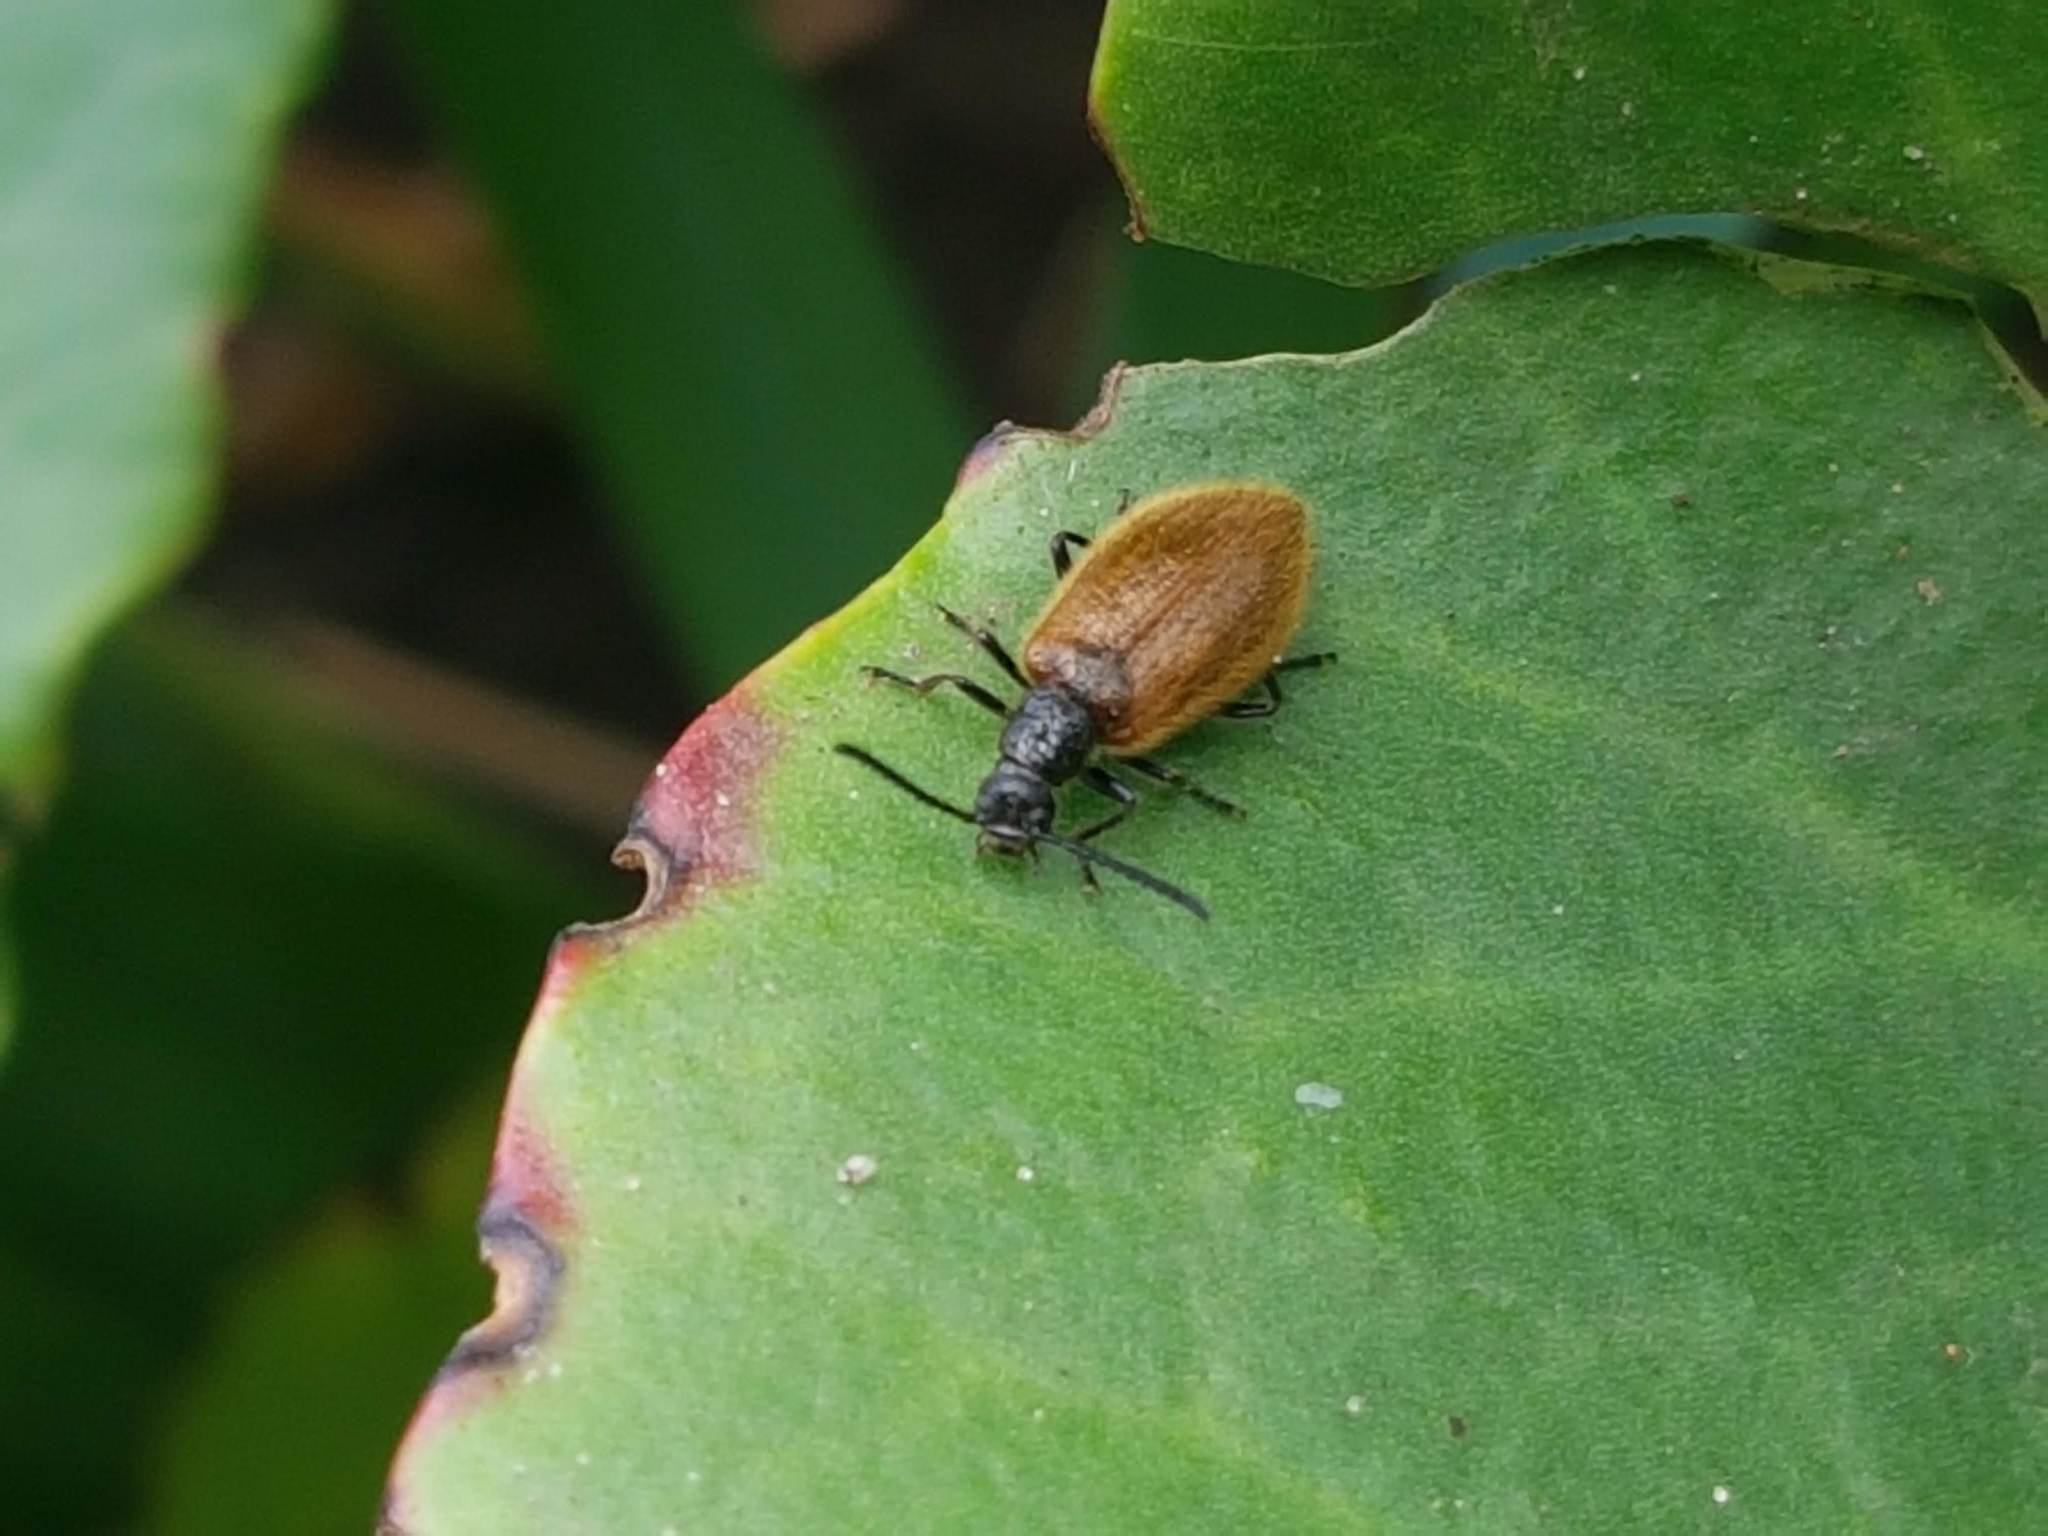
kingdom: Animalia
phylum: Arthropoda
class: Insecta
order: Coleoptera
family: Tenebrionidae
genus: Lagria
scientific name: Lagria hirta
